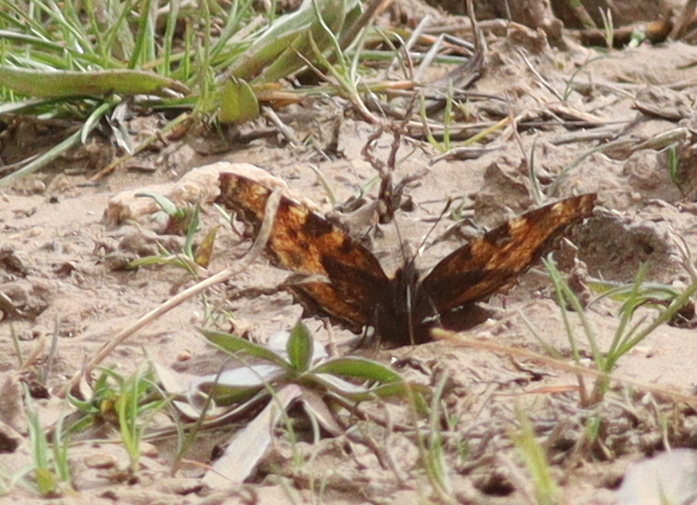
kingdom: Animalia
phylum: Arthropoda
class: Insecta
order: Lepidoptera
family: Nymphalidae
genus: Nymphalis
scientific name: Nymphalis polychloros
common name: Large tortoiseshell
